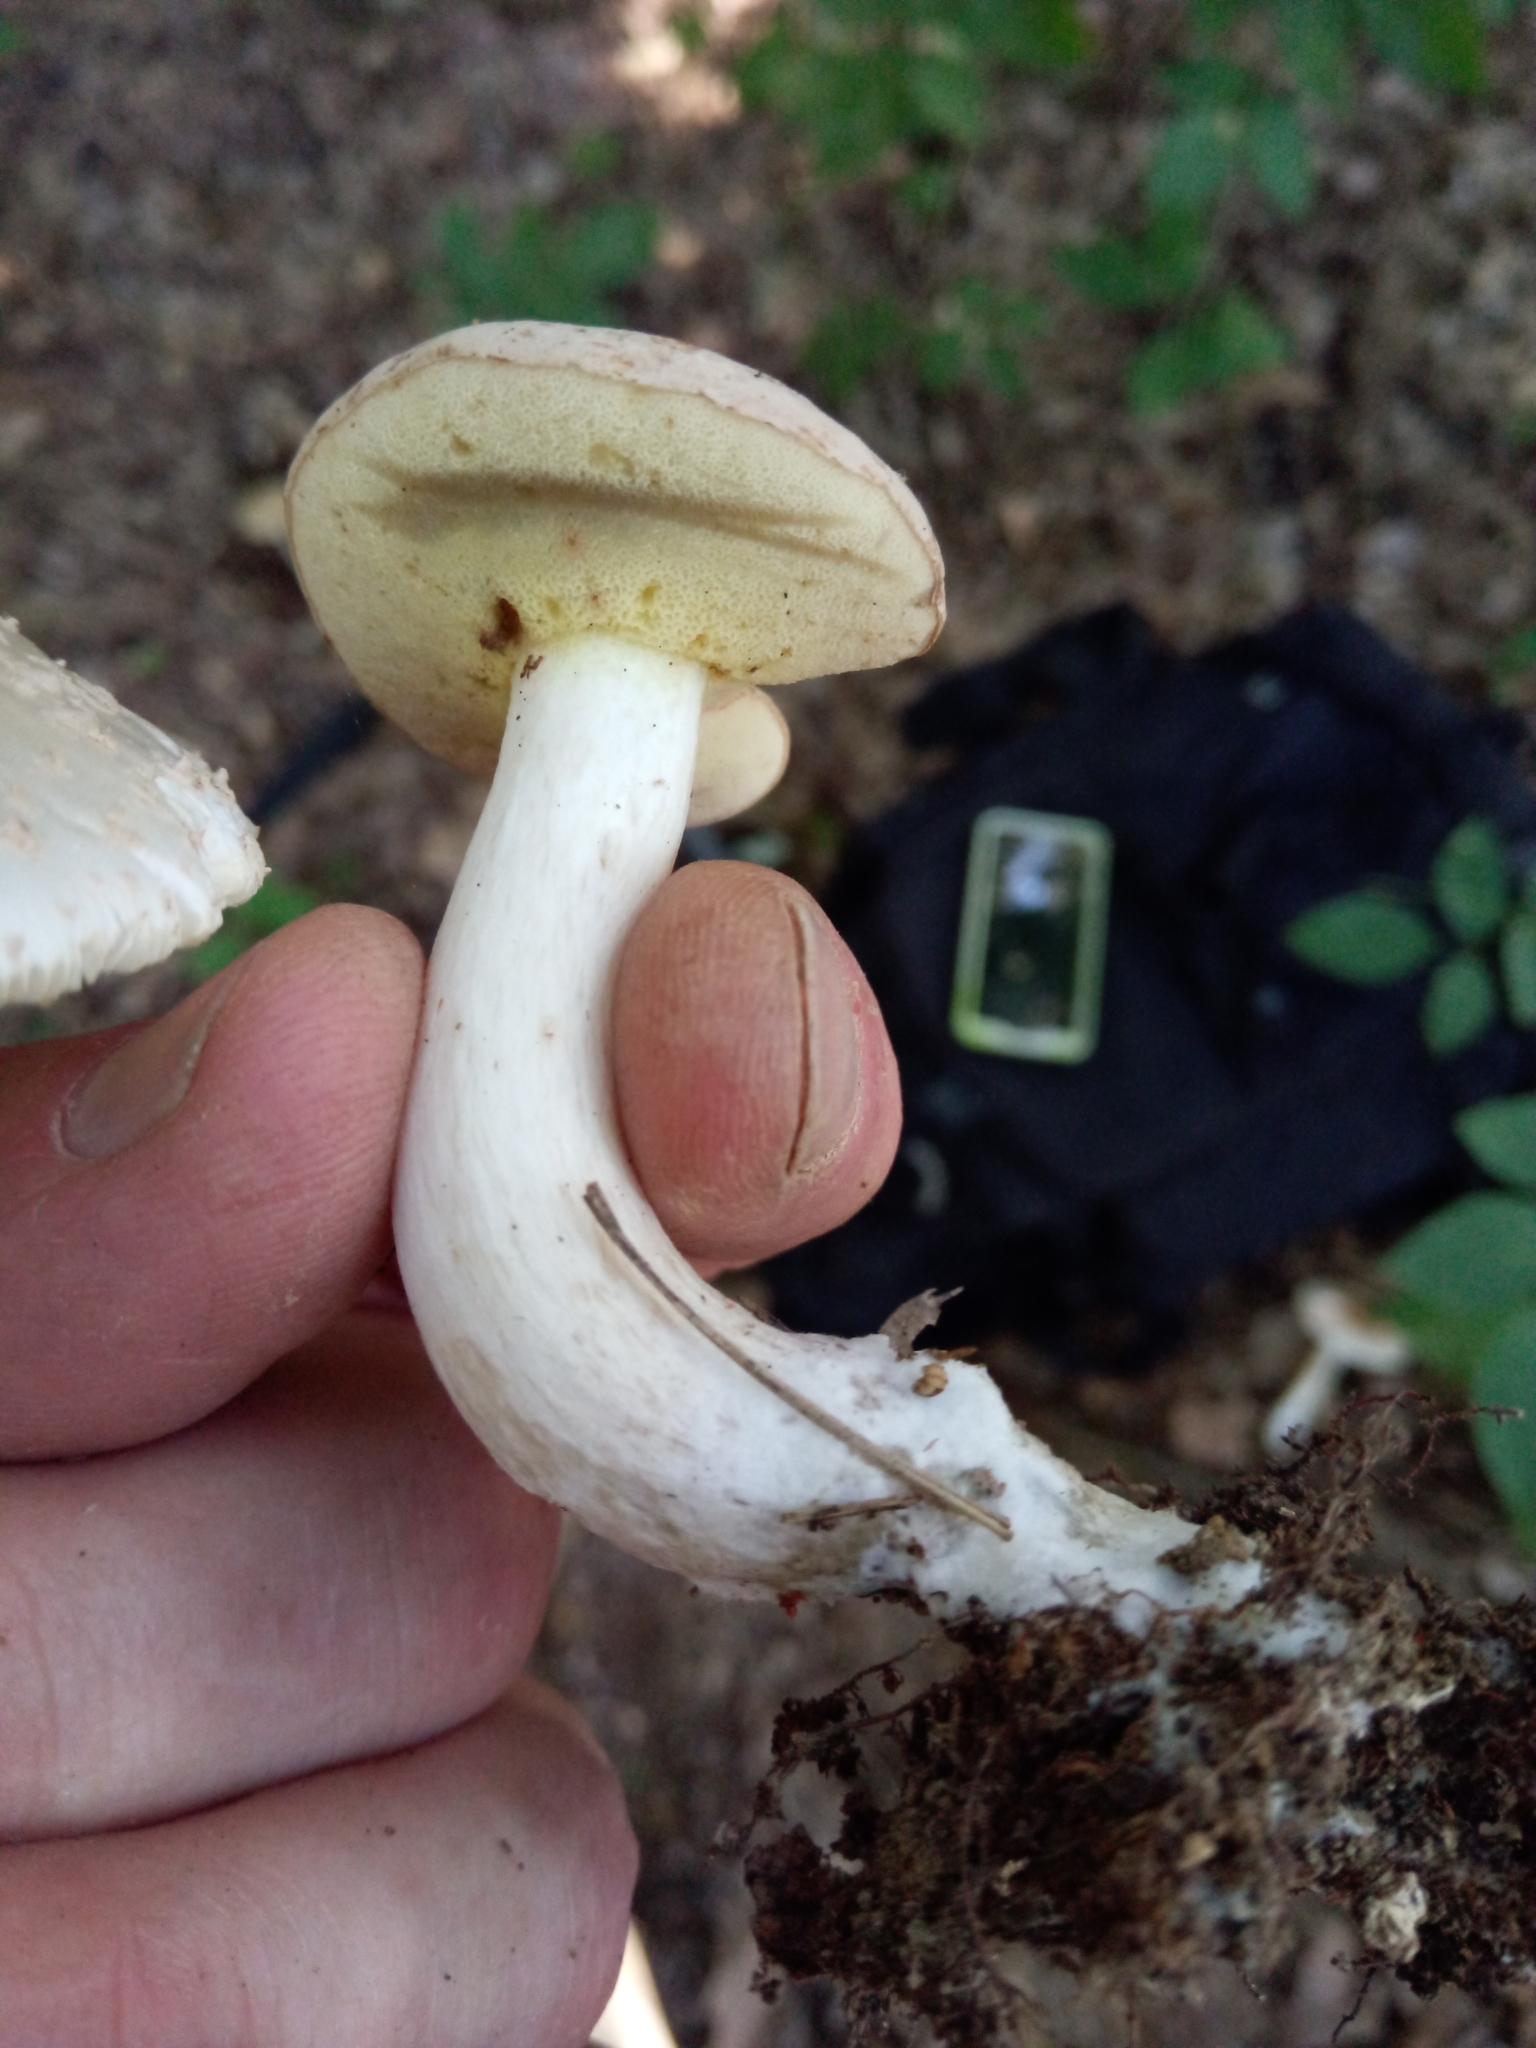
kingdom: Fungi
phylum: Basidiomycota
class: Agaricomycetes
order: Boletales
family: Boletaceae
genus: Imleria
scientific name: Imleria pallida
